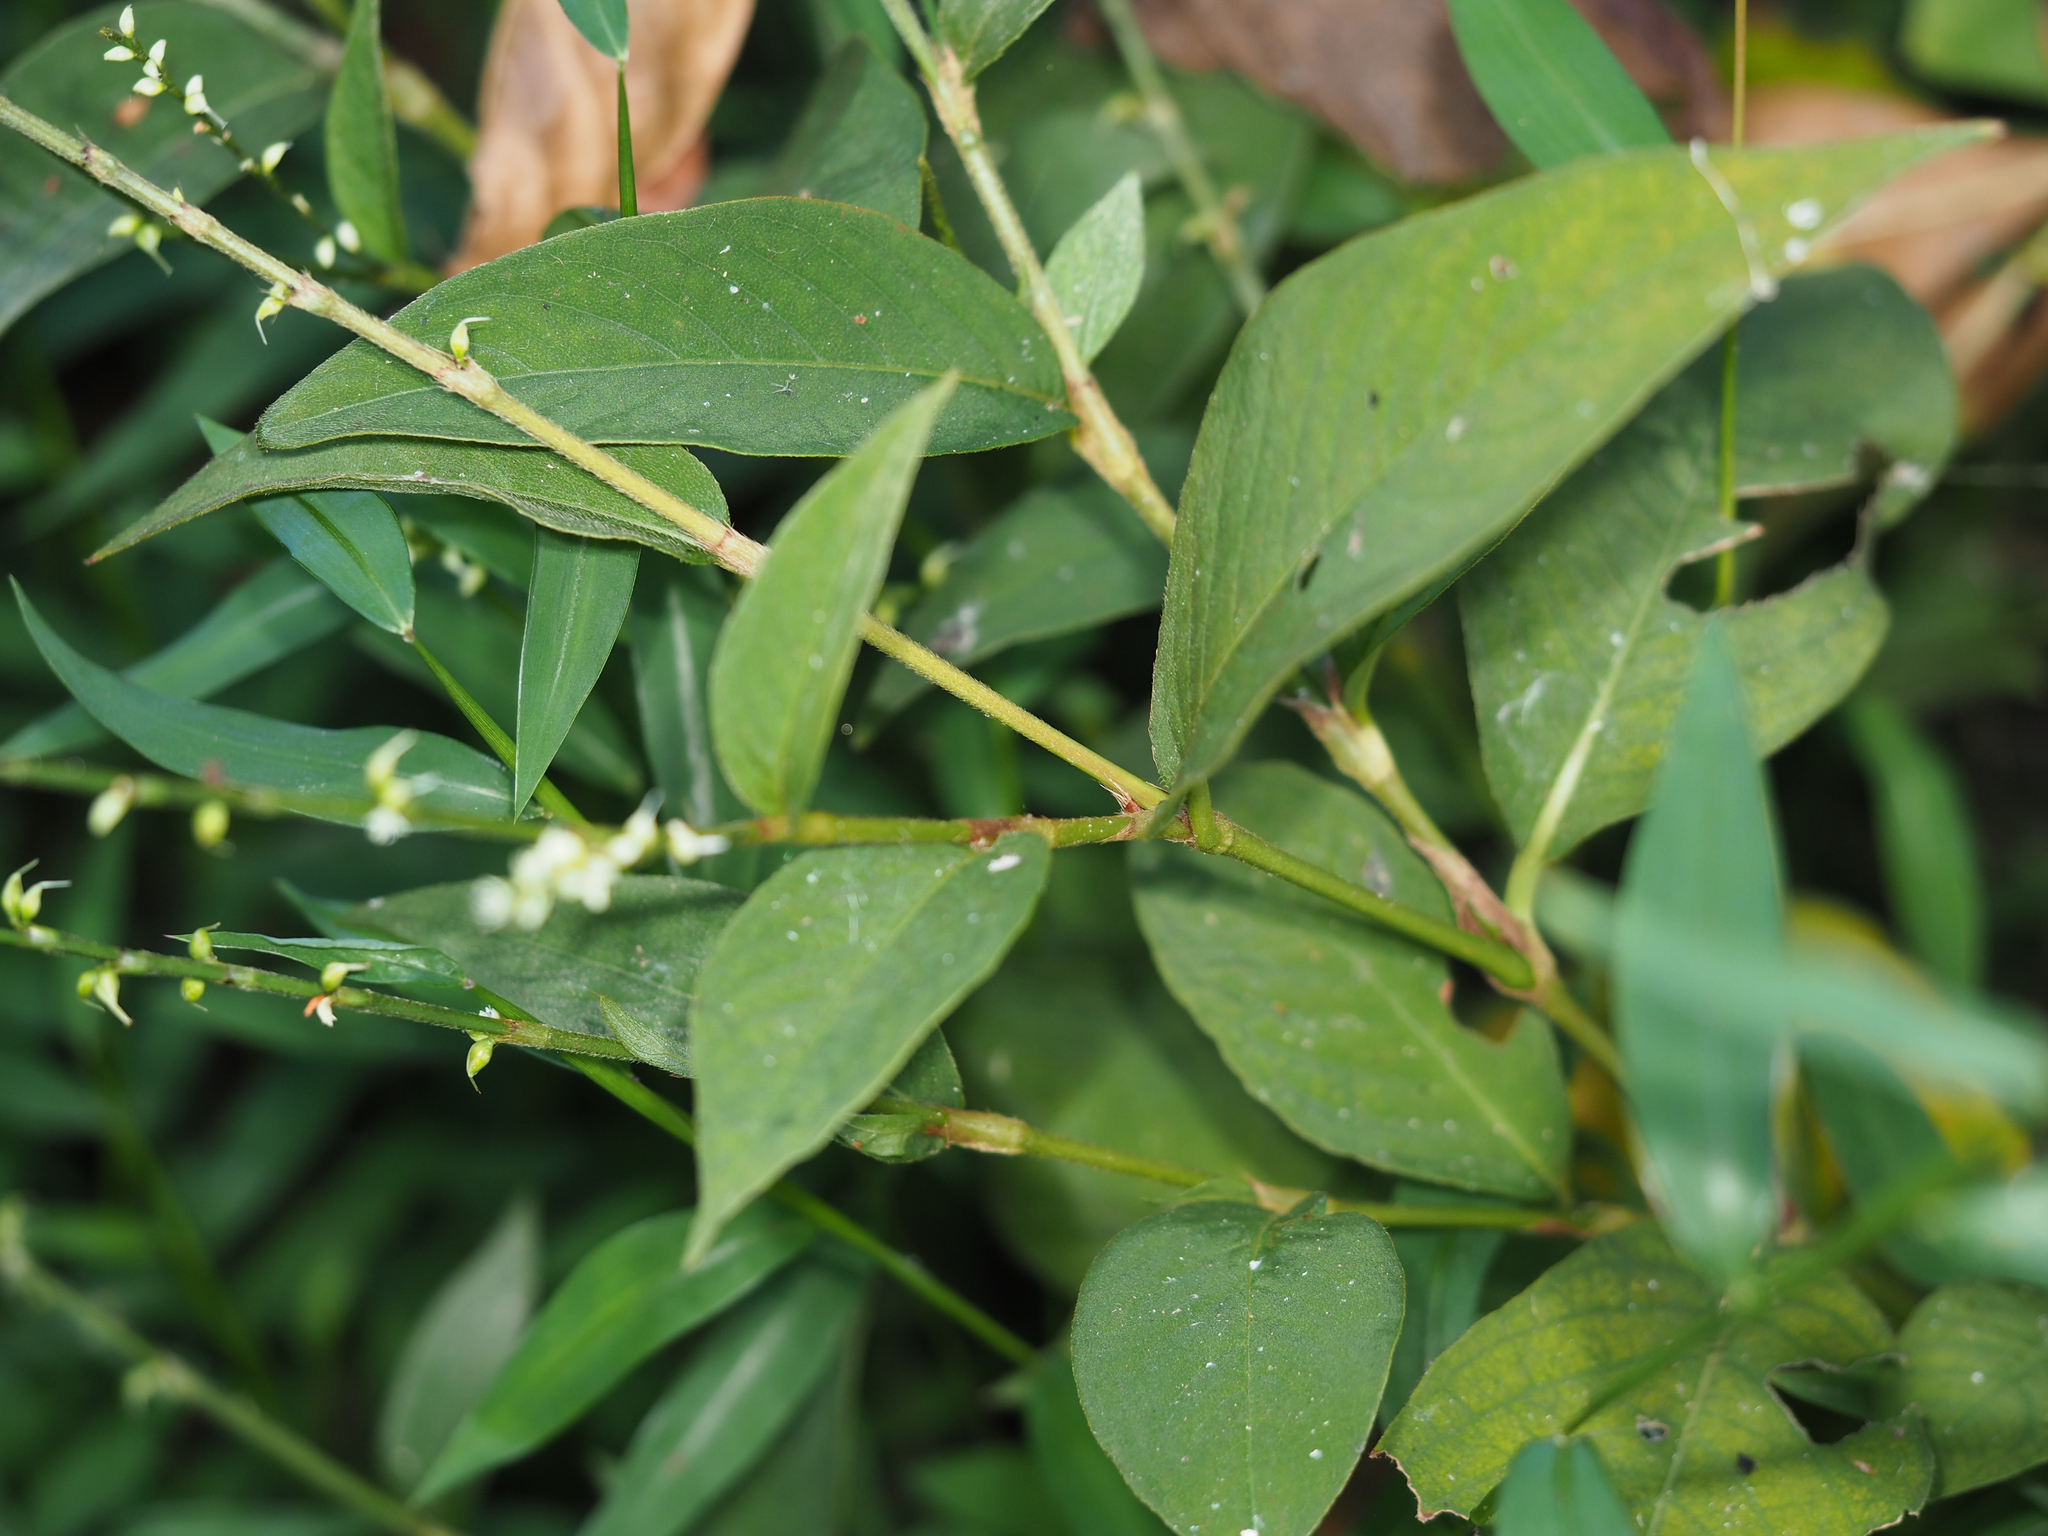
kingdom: Plantae
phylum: Tracheophyta
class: Magnoliopsida
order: Caryophyllales
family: Polygonaceae
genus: Persicaria
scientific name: Persicaria virginiana
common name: Jumpseed
